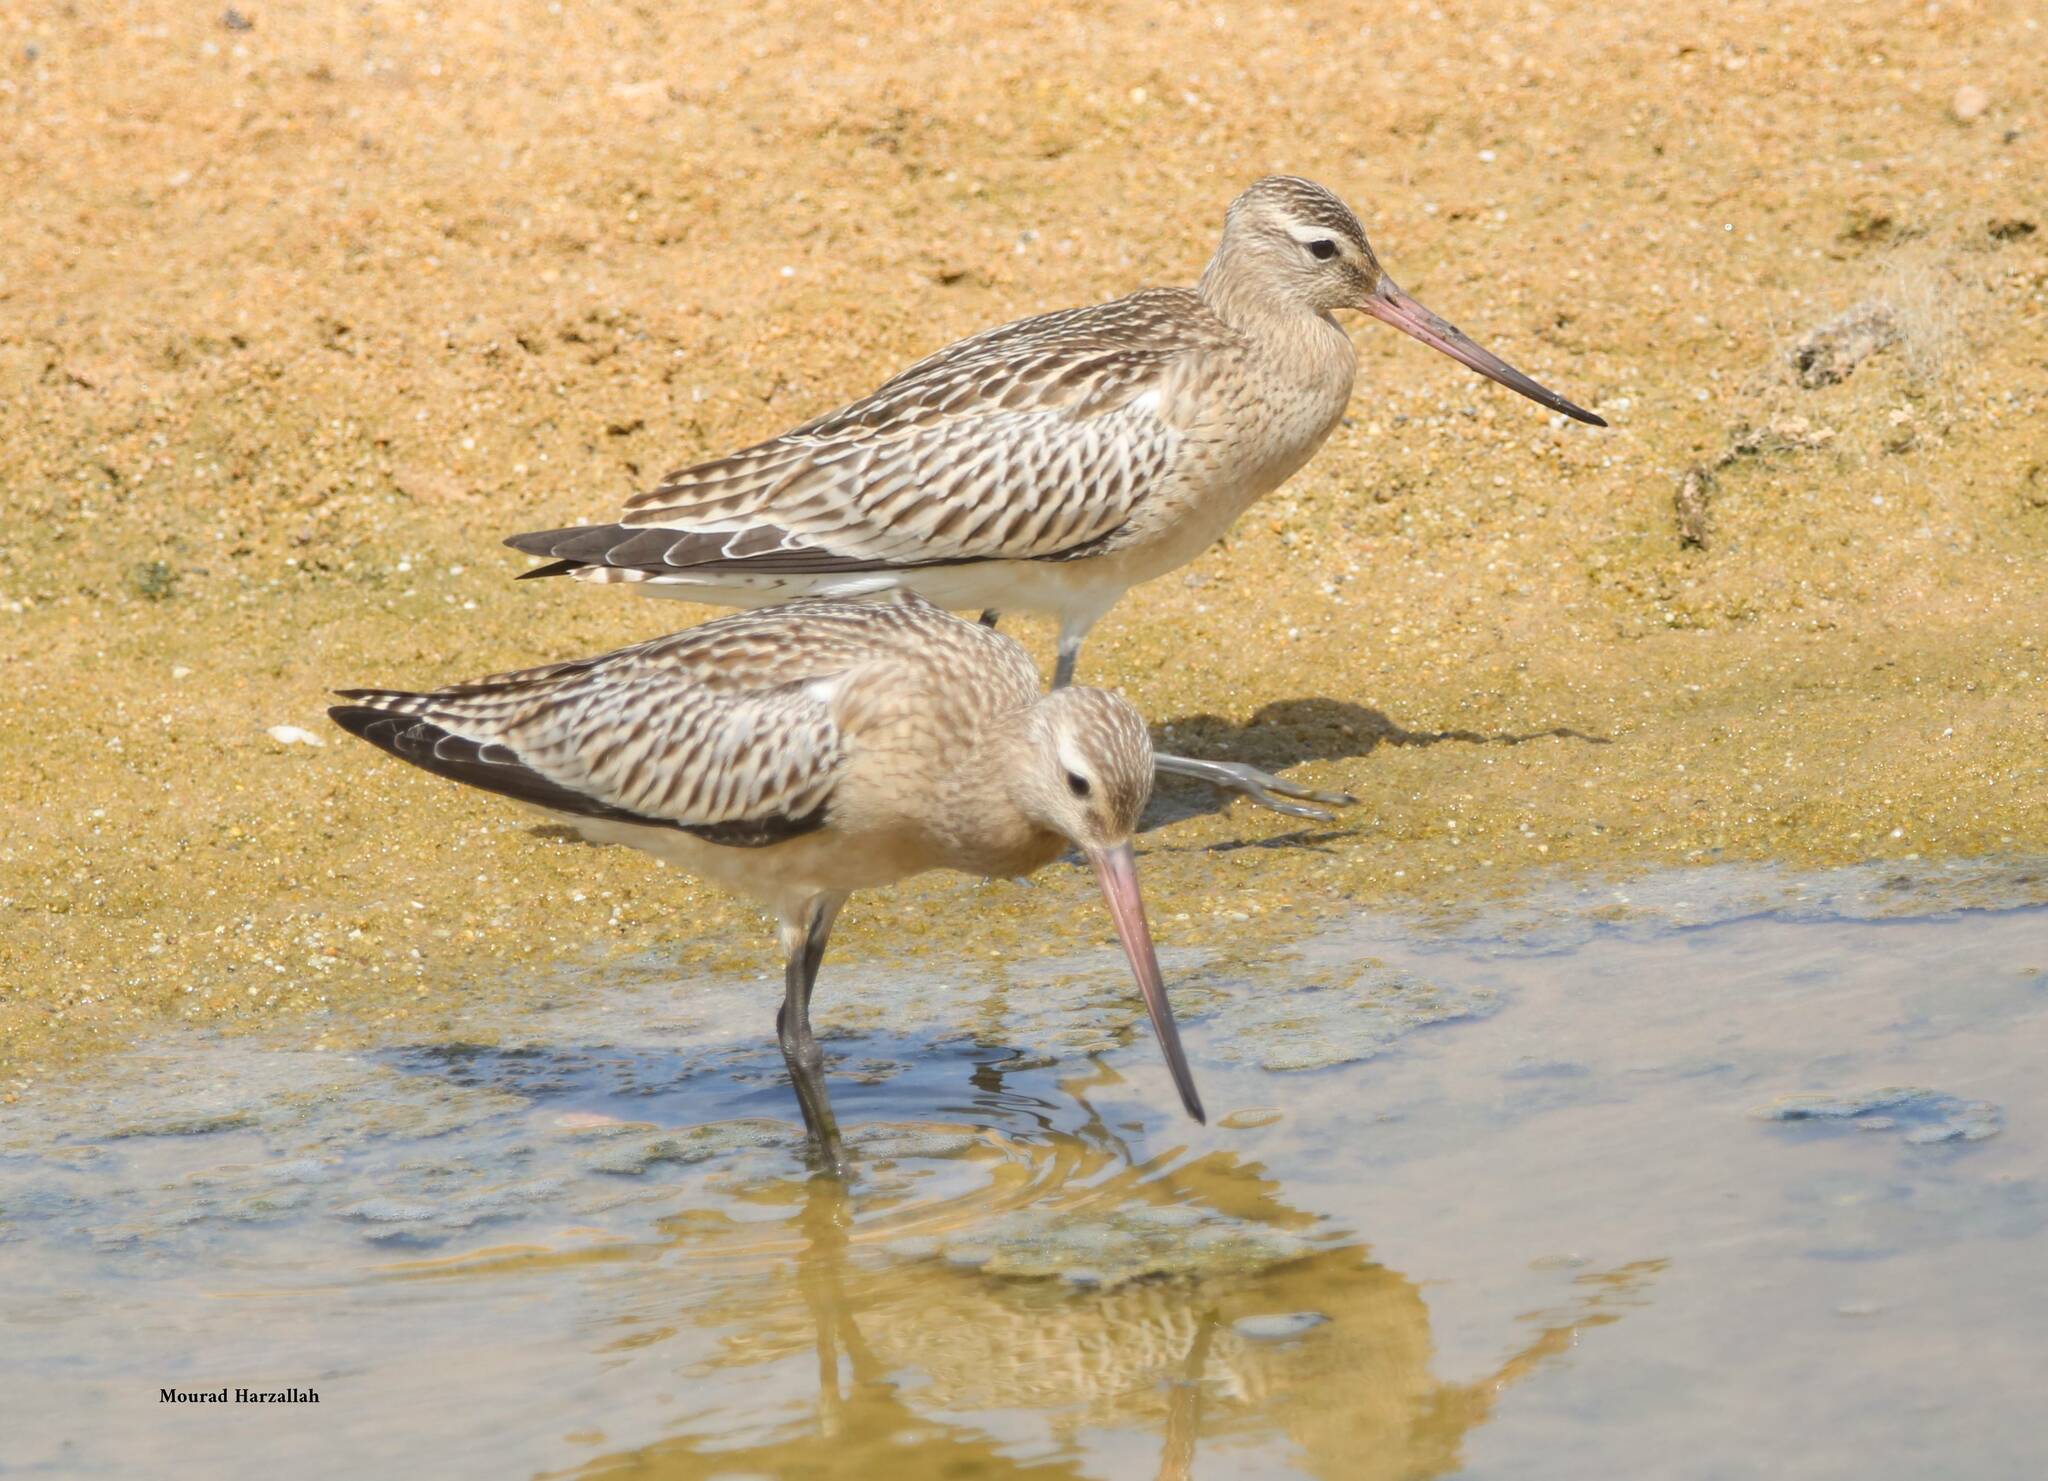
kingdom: Animalia
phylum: Chordata
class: Aves
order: Charadriiformes
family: Scolopacidae
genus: Limosa
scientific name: Limosa lapponica
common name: Bar-tailed godwit
